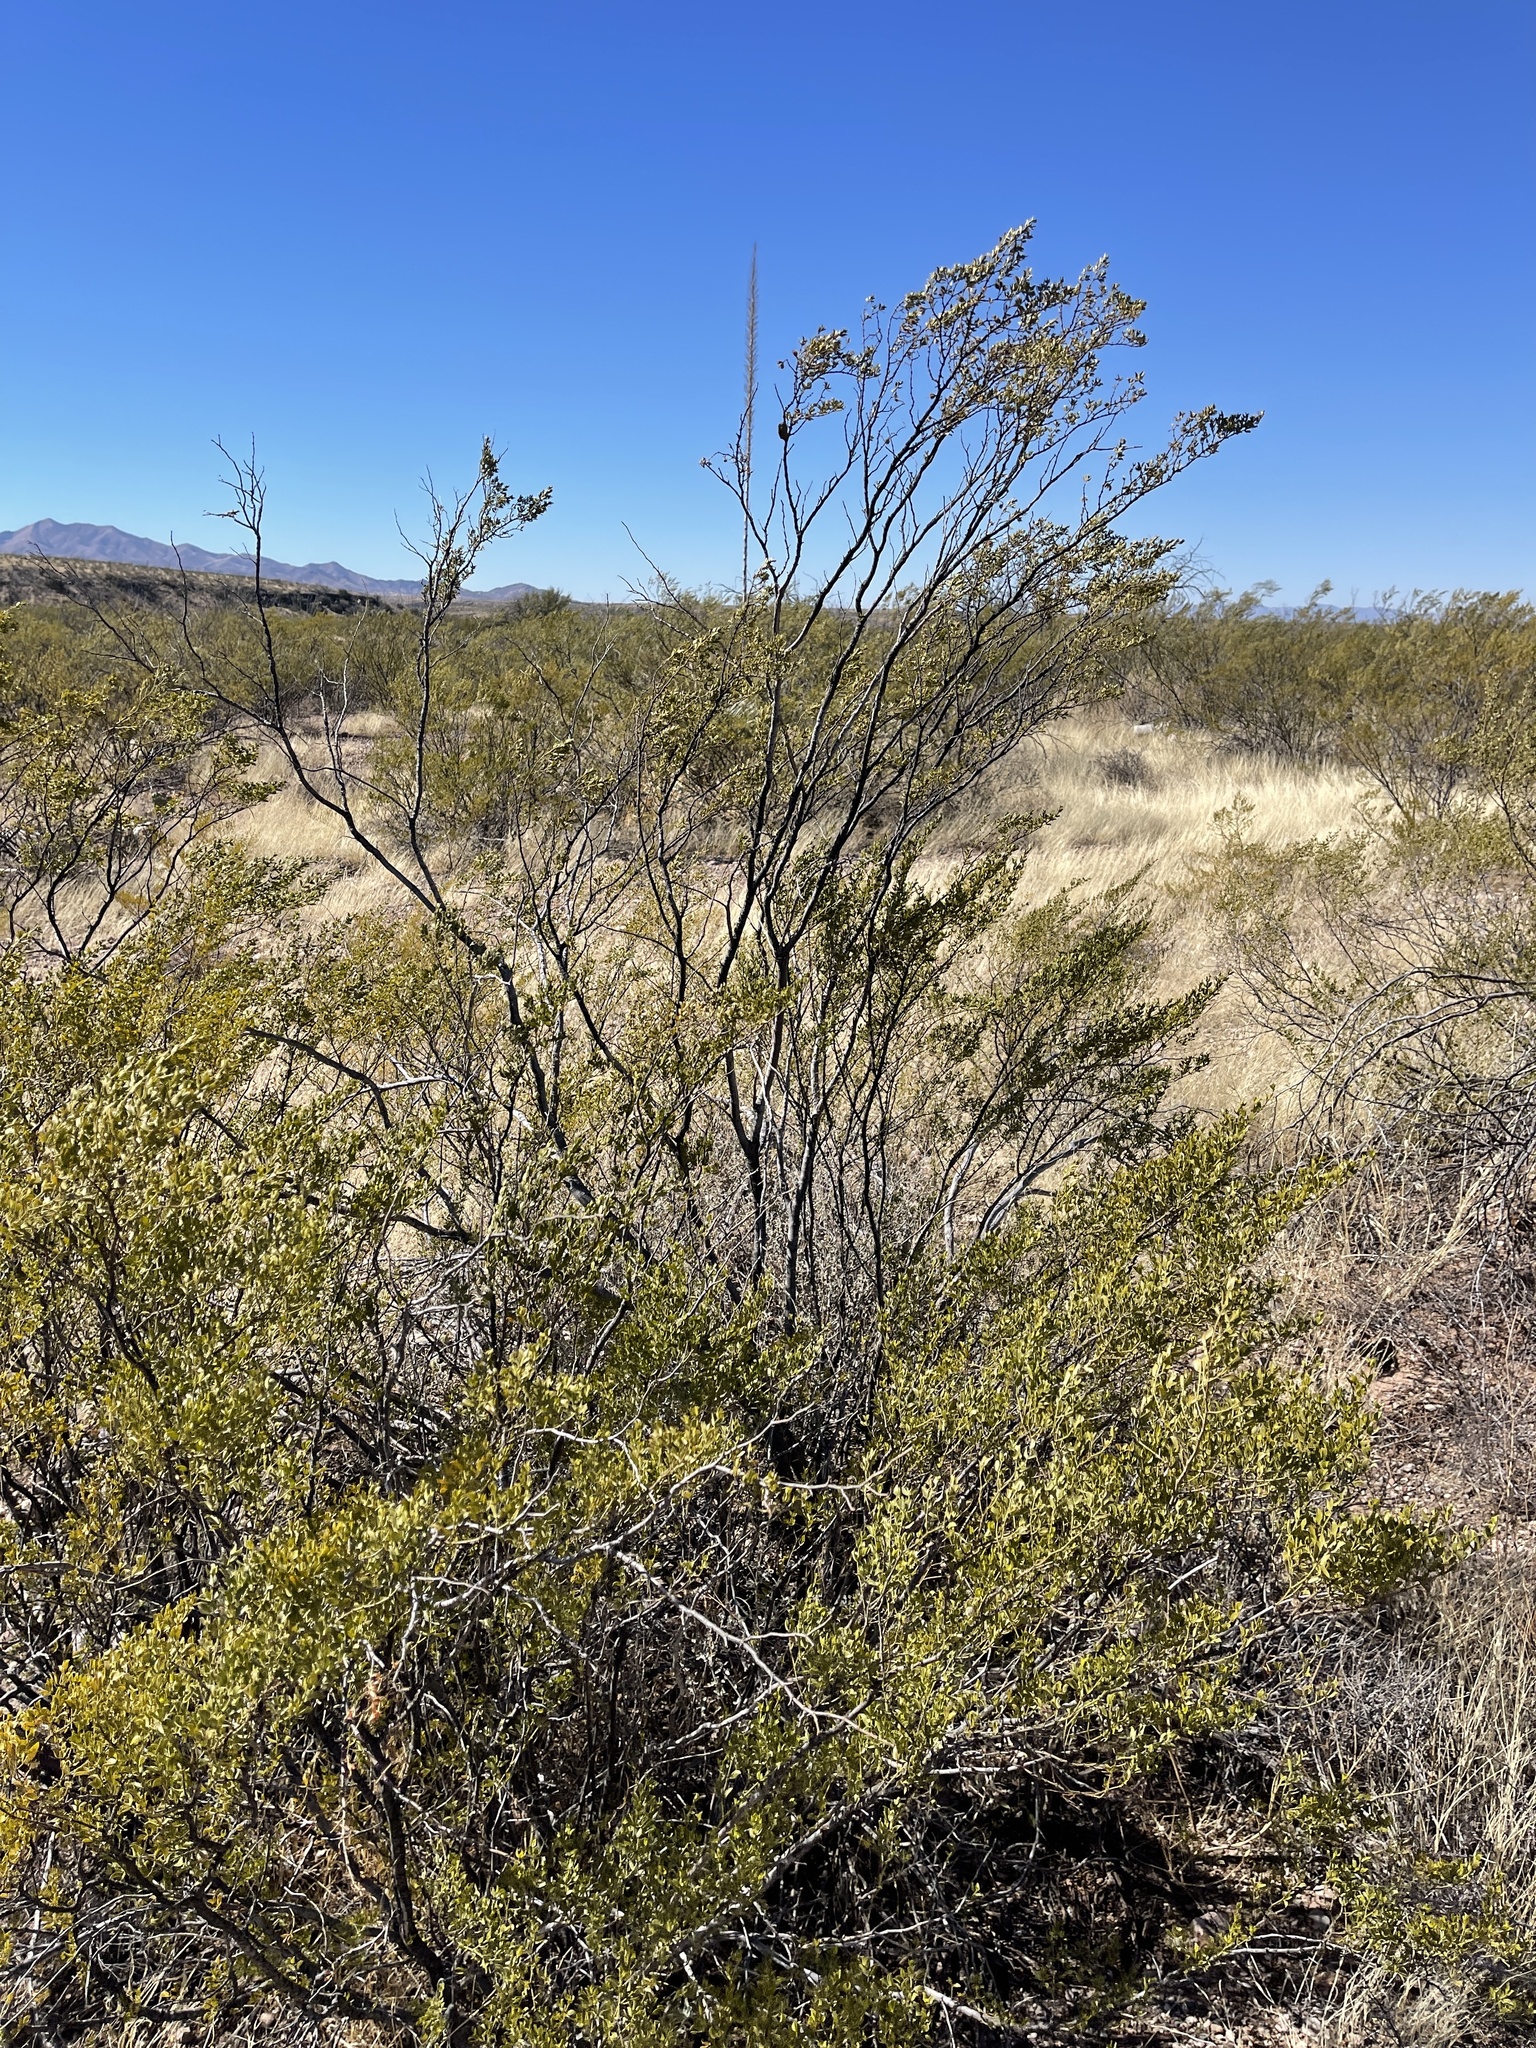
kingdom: Plantae
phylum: Tracheophyta
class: Magnoliopsida
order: Zygophyllales
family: Zygophyllaceae
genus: Larrea
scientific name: Larrea tridentata
